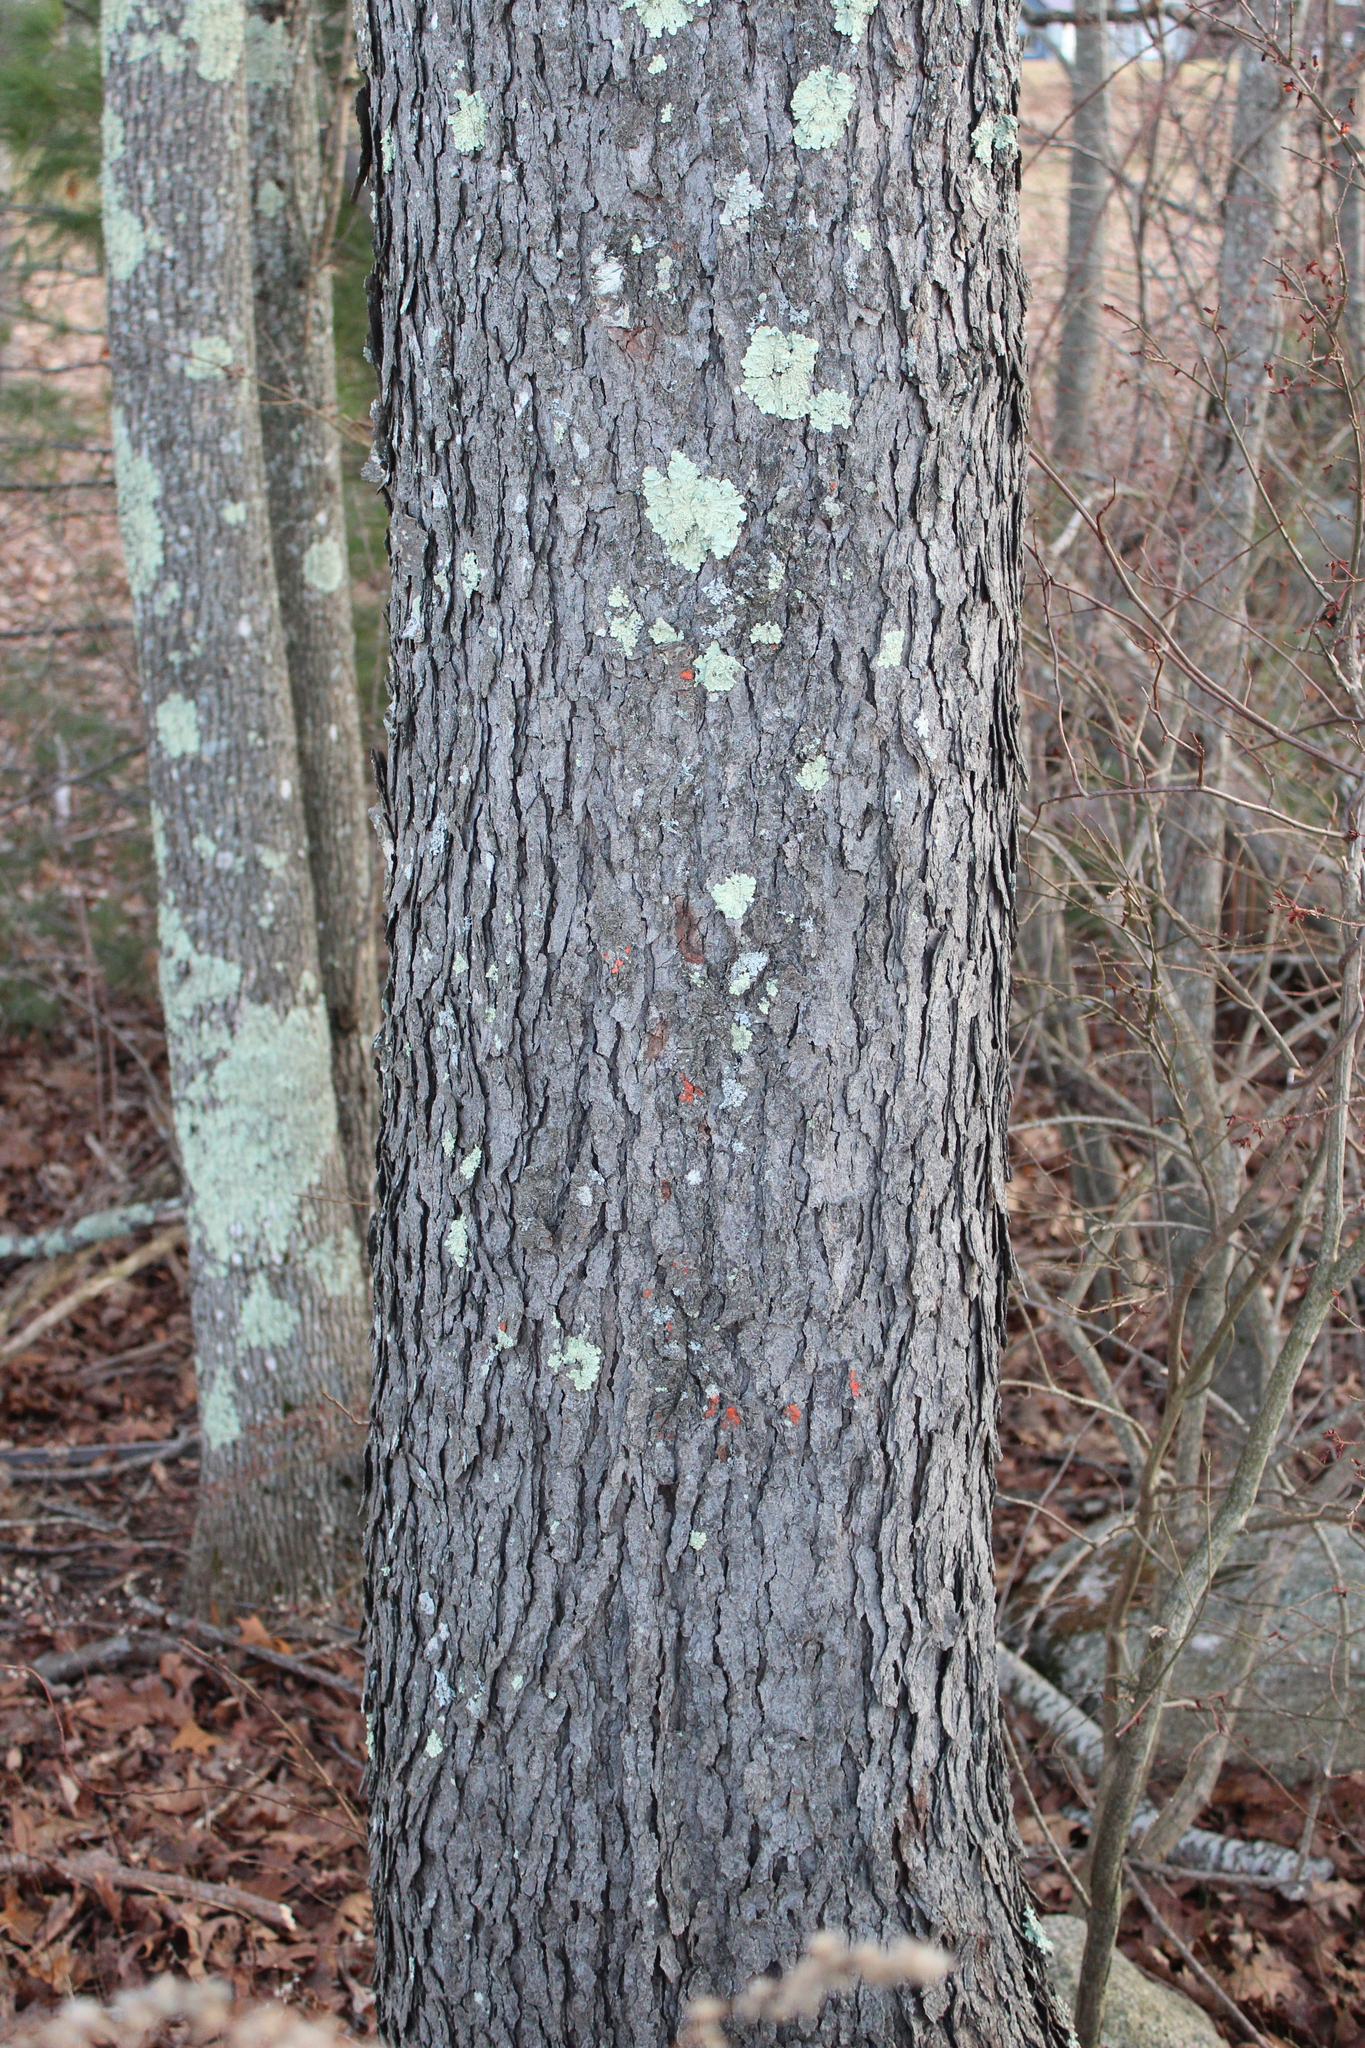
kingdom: Plantae
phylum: Tracheophyta
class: Magnoliopsida
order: Rosales
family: Rosaceae
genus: Prunus
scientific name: Prunus serotina
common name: Black cherry
